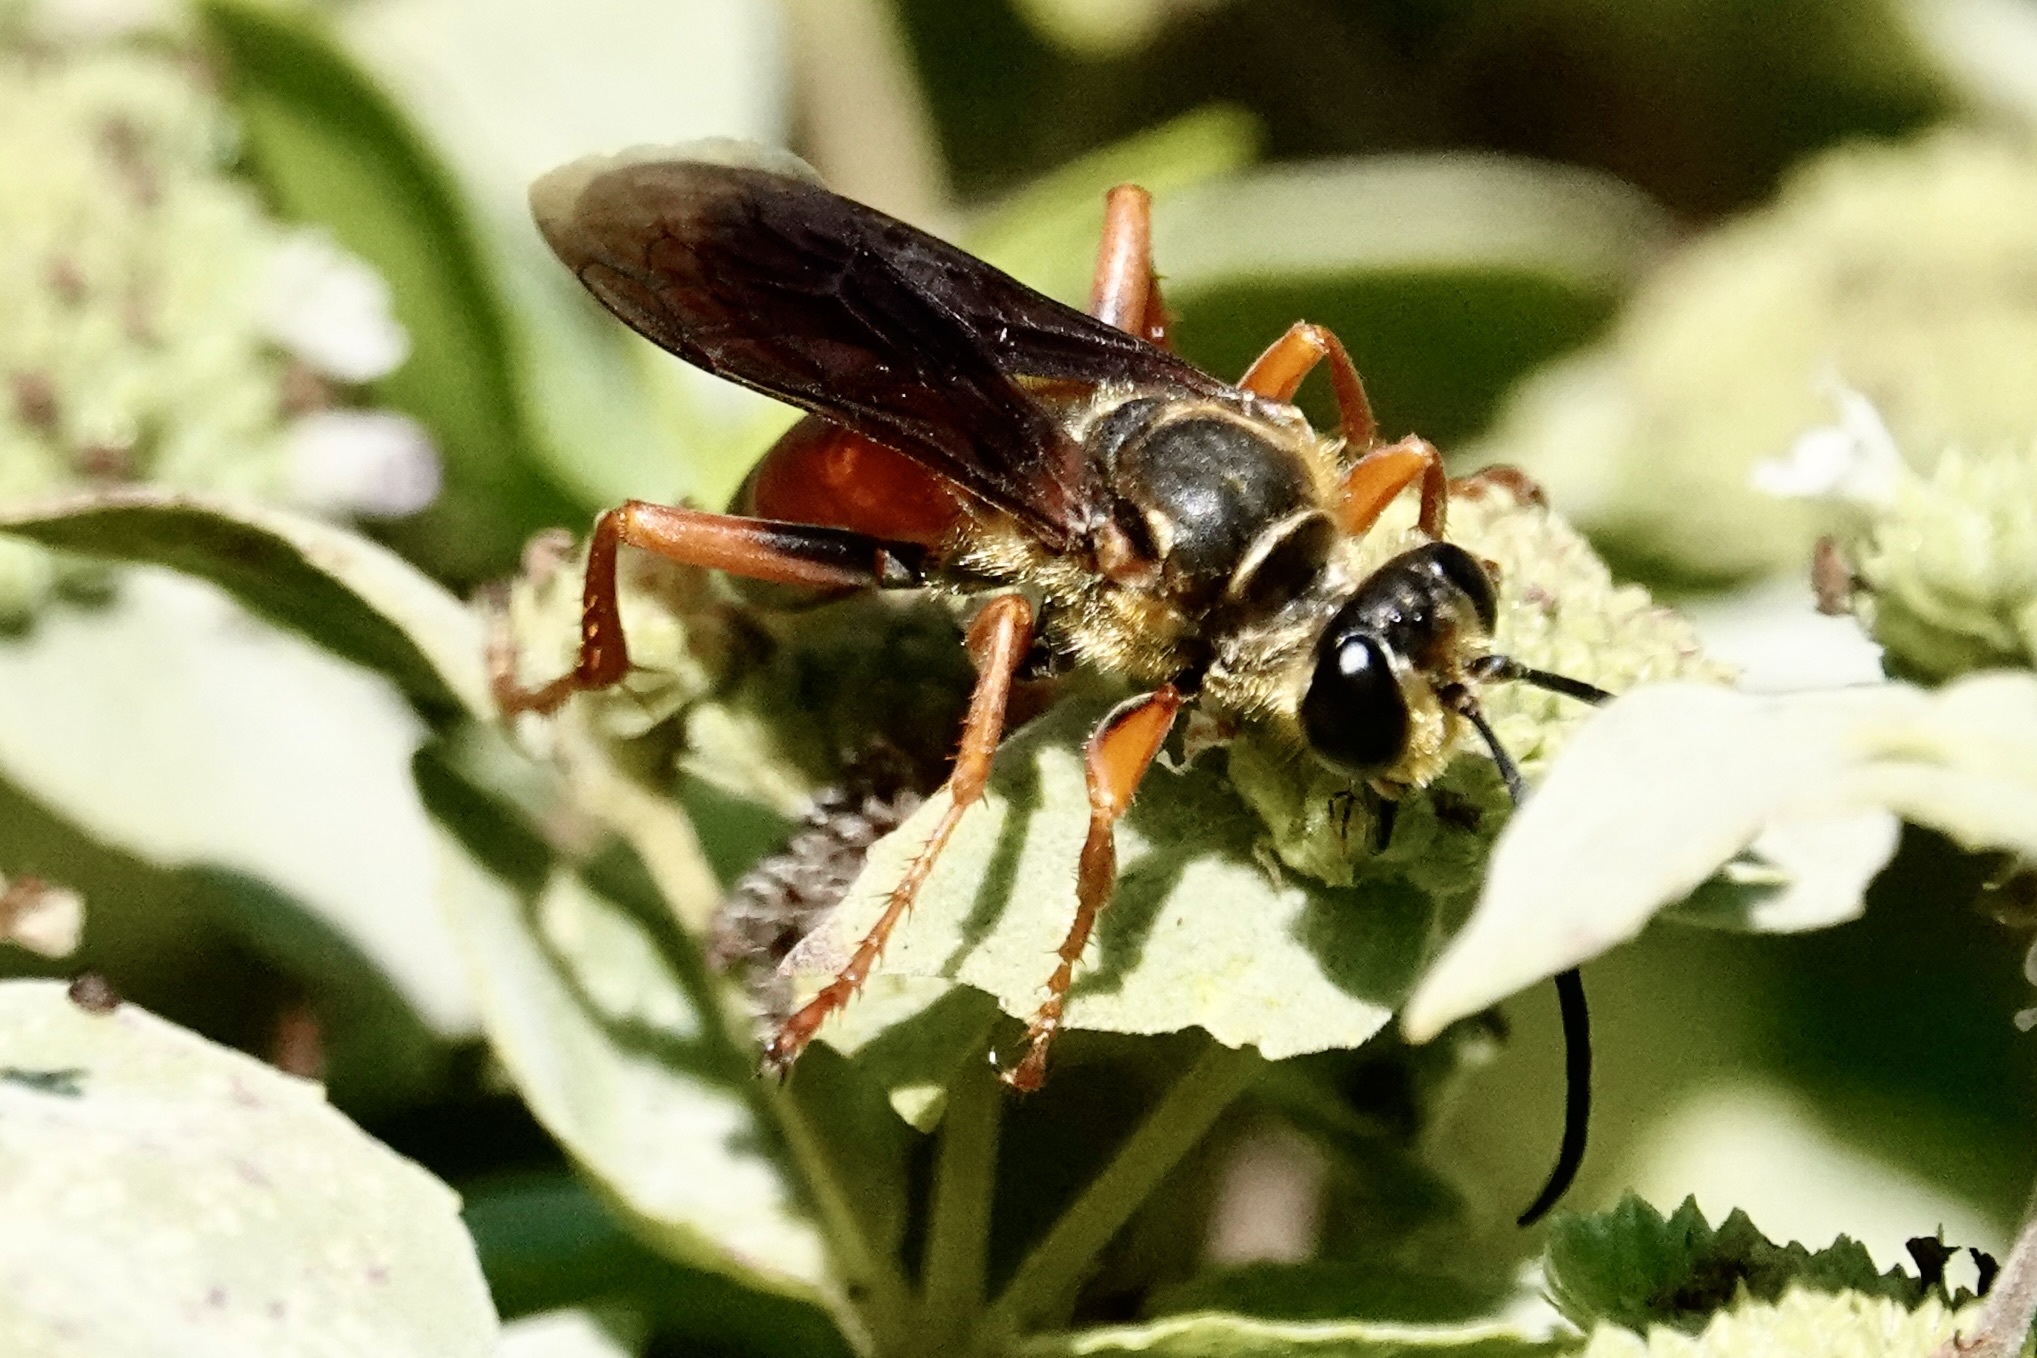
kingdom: Animalia
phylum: Arthropoda
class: Insecta
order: Hymenoptera
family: Sphecidae
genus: Sphex
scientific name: Sphex ichneumoneus
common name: Great golden digger wasp
